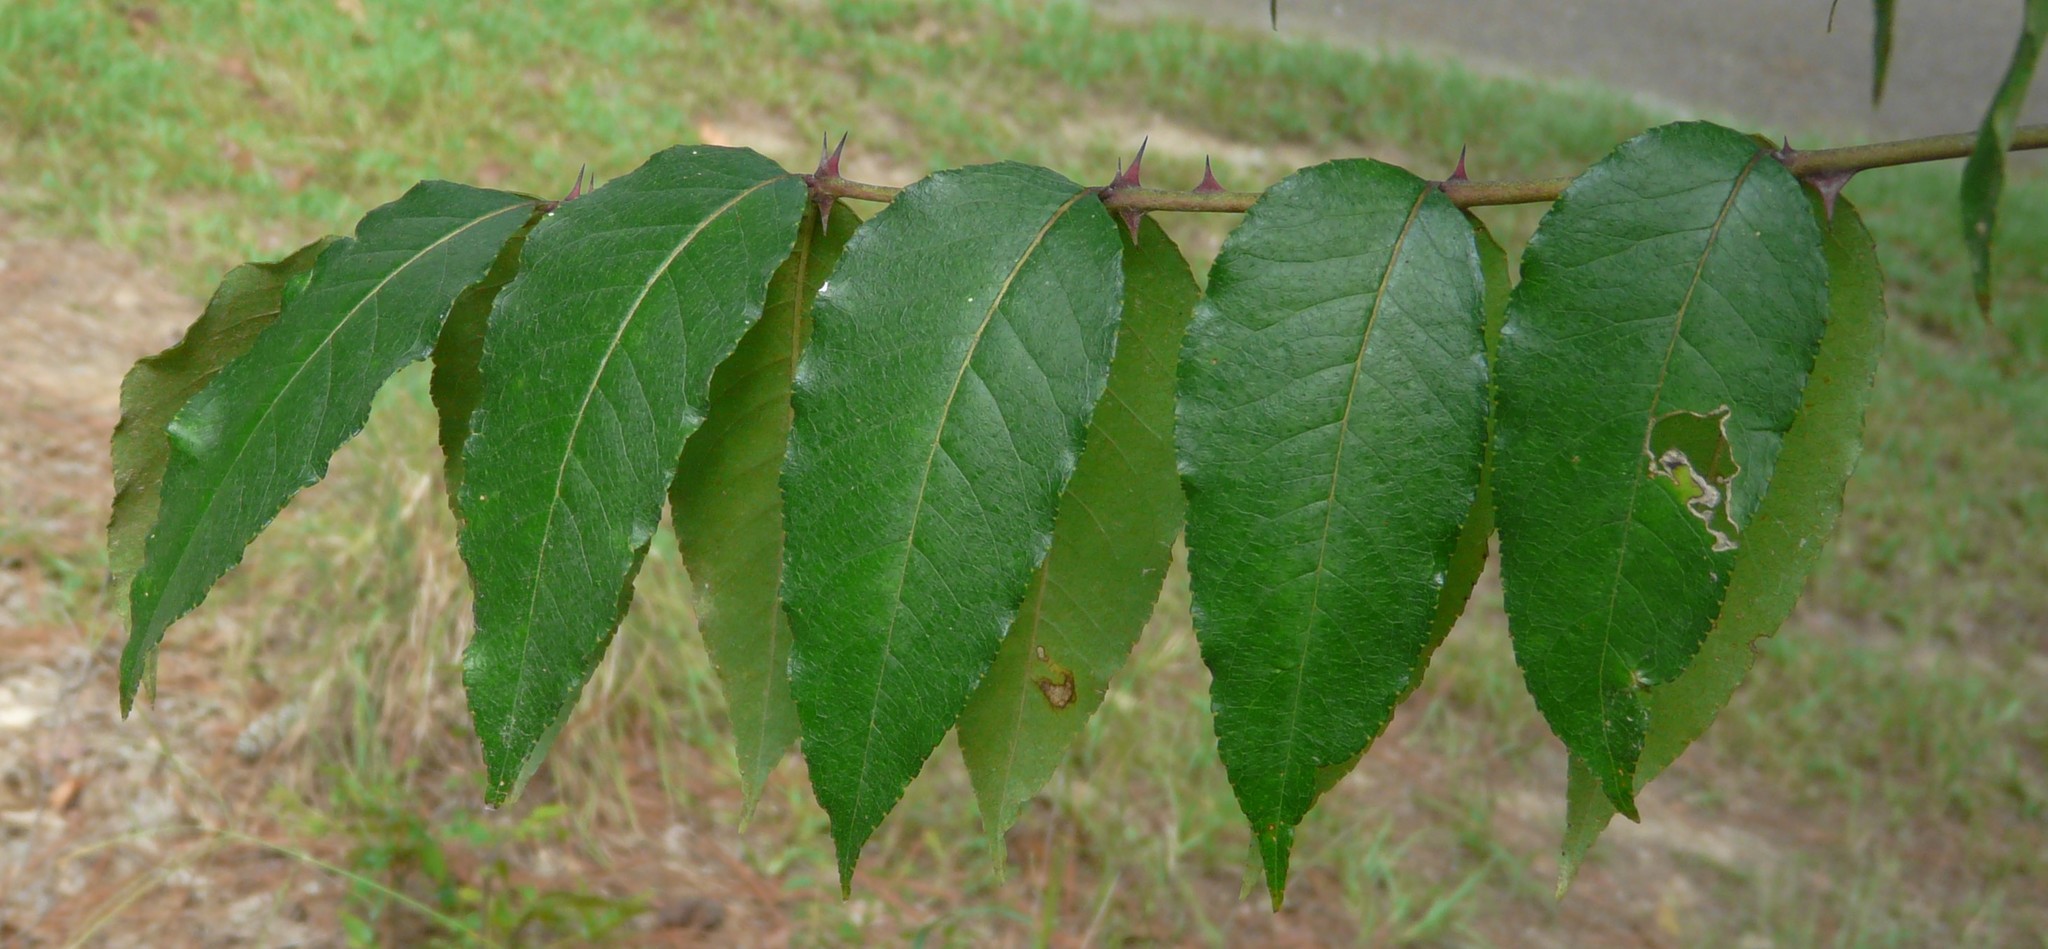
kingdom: Plantae
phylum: Tracheophyta
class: Magnoliopsida
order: Sapindales
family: Rutaceae
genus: Zanthoxylum
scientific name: Zanthoxylum clava-herculis
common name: Hercules'-club
